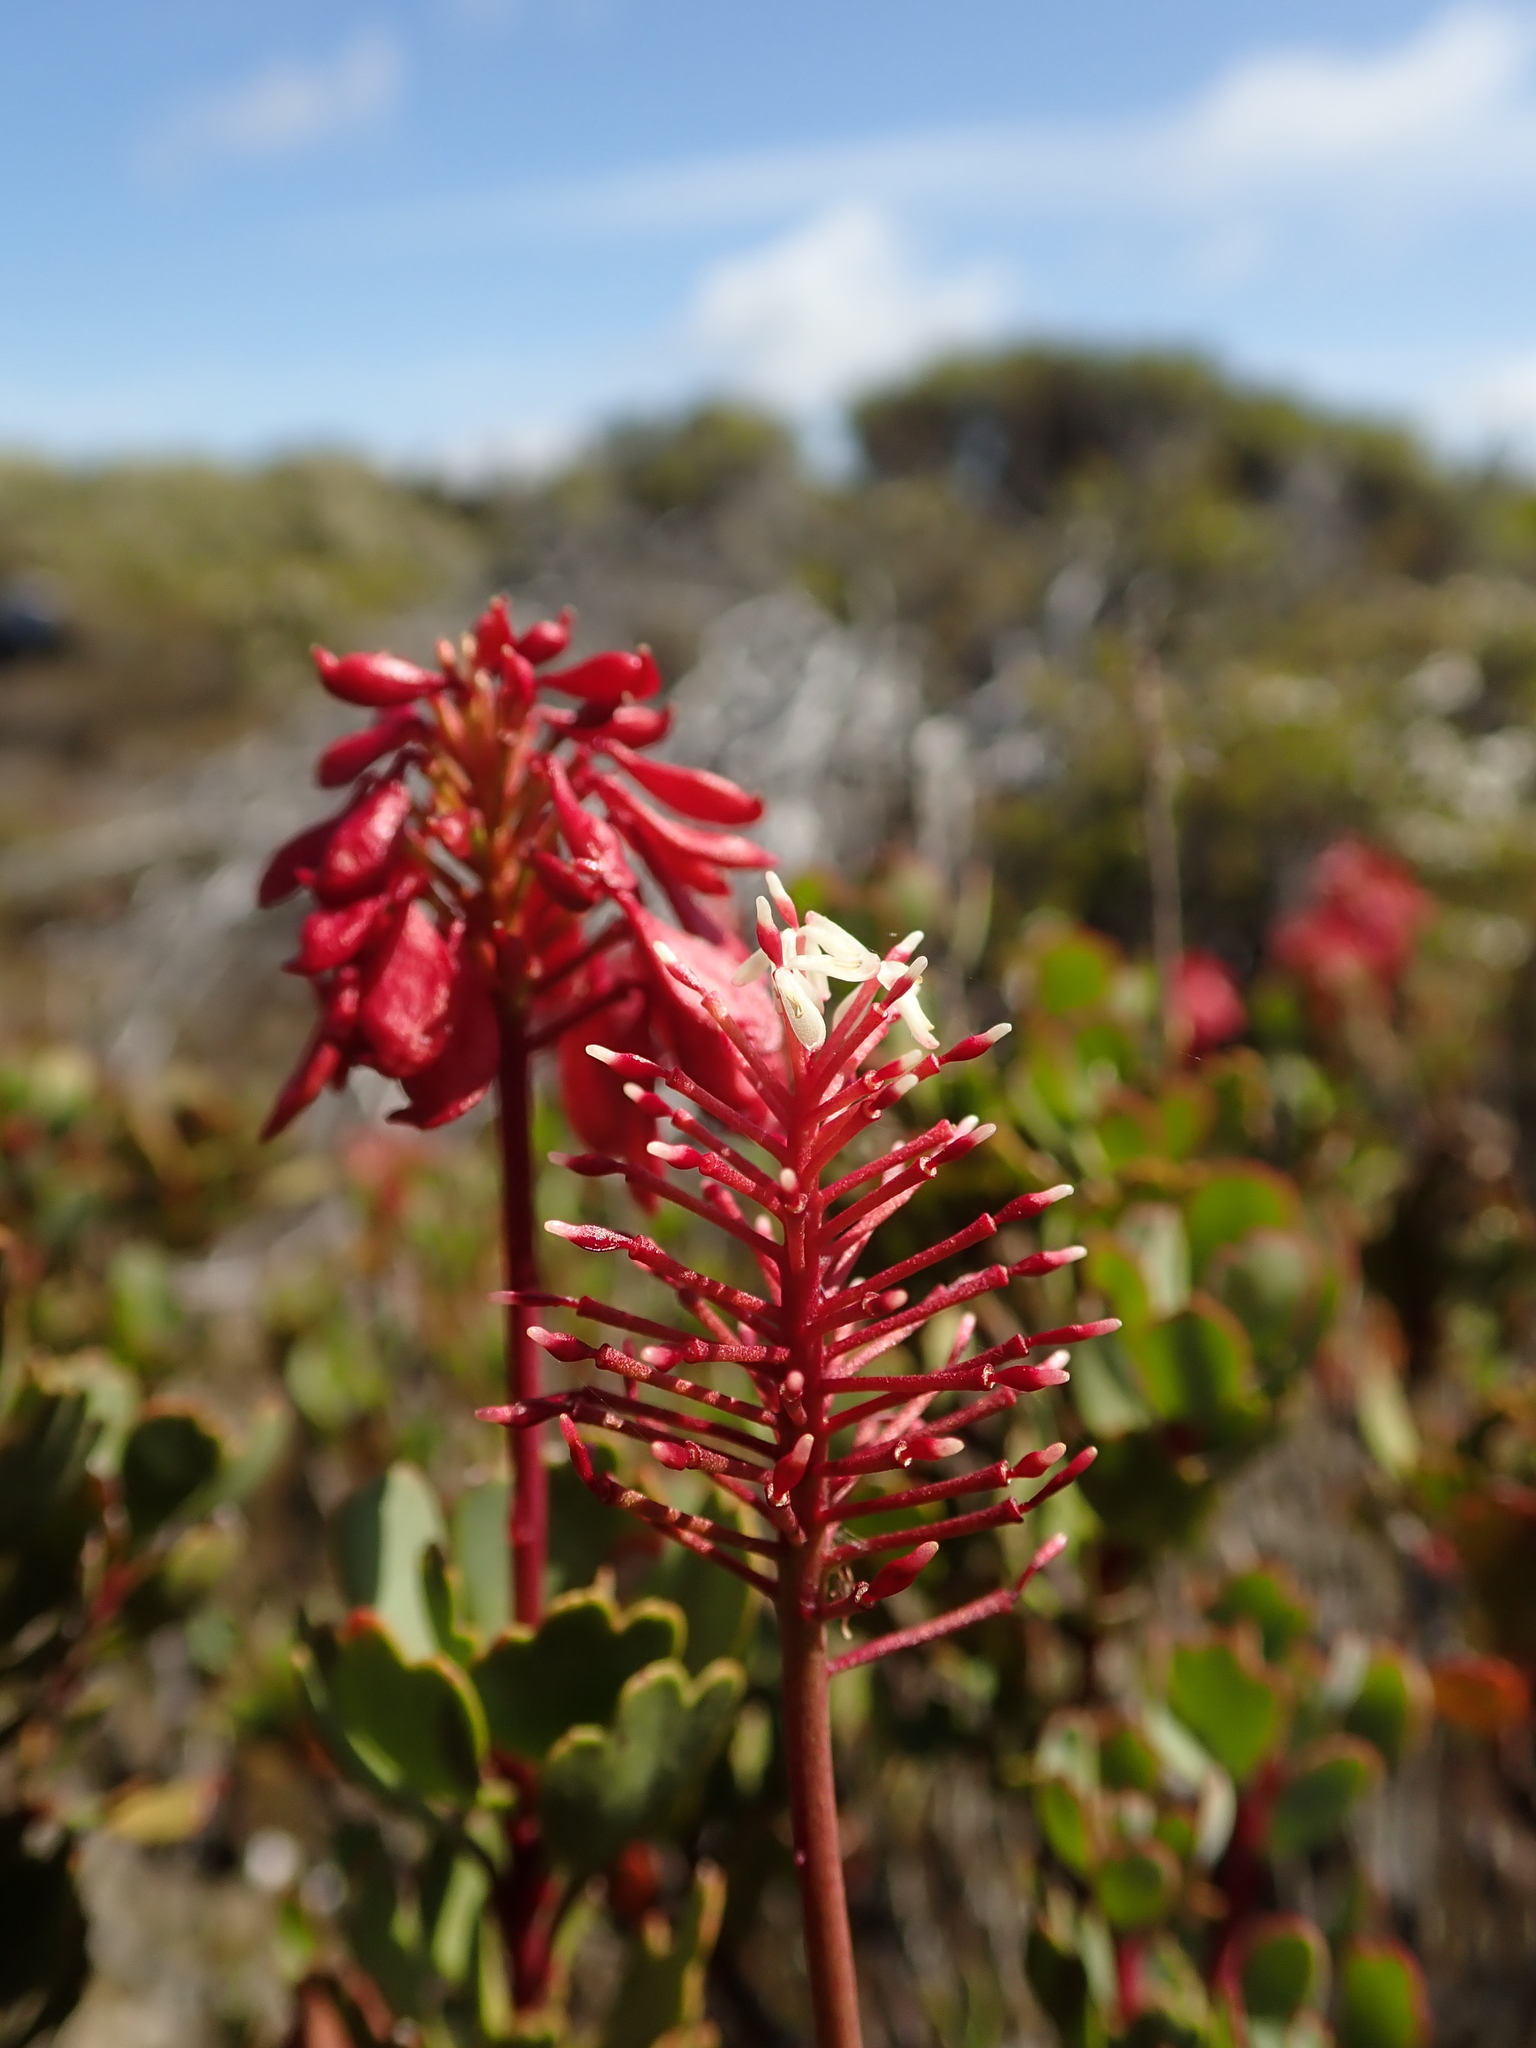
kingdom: Plantae
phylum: Tracheophyta
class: Magnoliopsida
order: Proteales
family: Proteaceae
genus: Bellendena
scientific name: Bellendena montana
